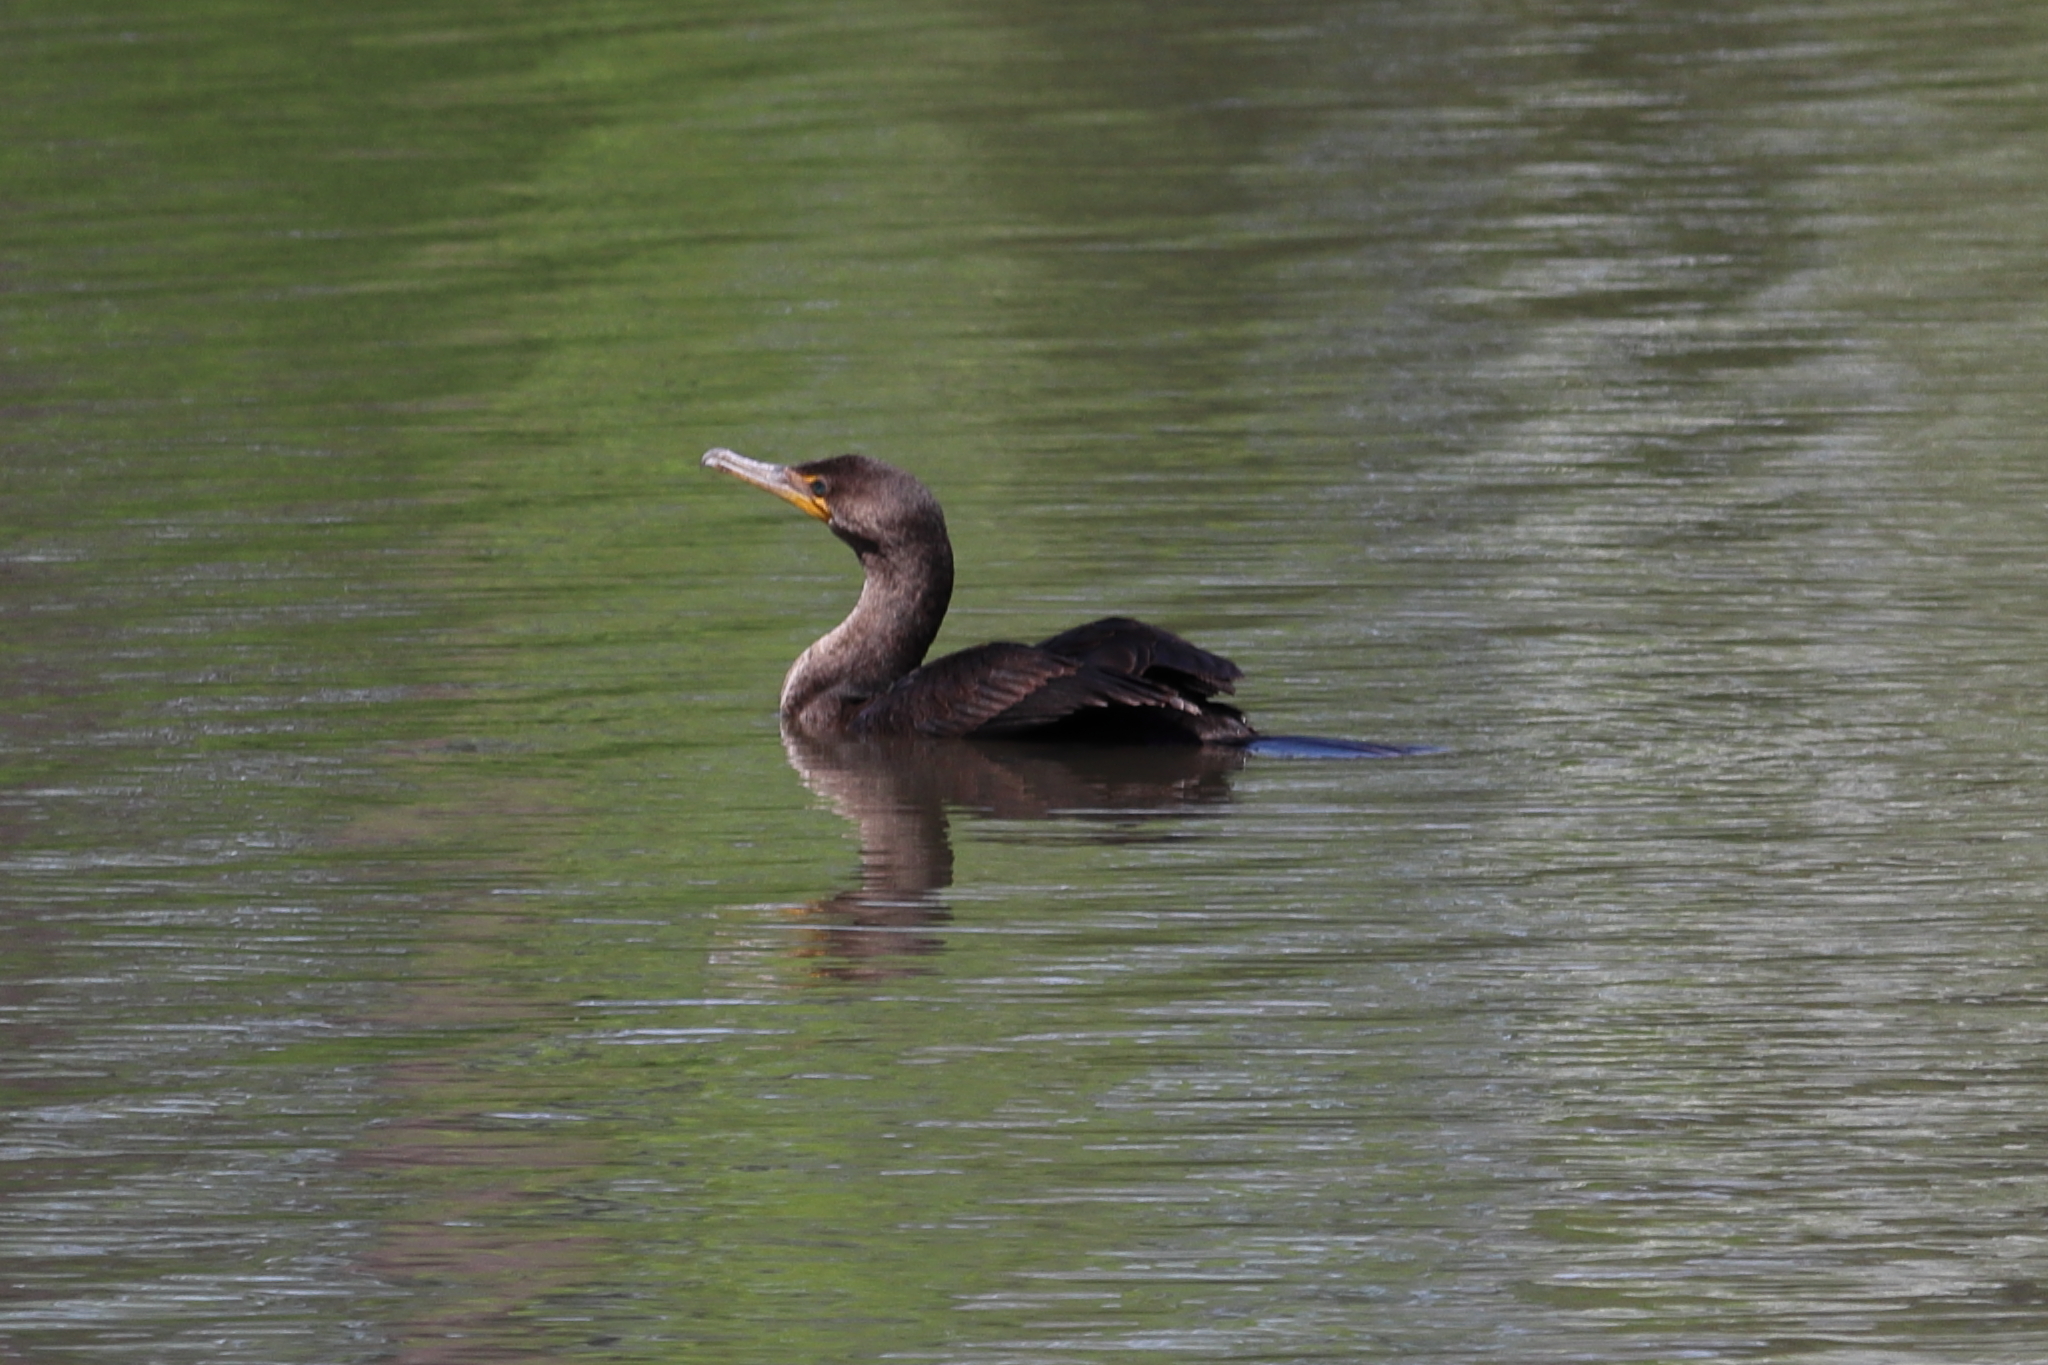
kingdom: Animalia
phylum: Chordata
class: Aves
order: Suliformes
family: Phalacrocoracidae
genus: Phalacrocorax
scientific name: Phalacrocorax auritus
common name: Double-crested cormorant
